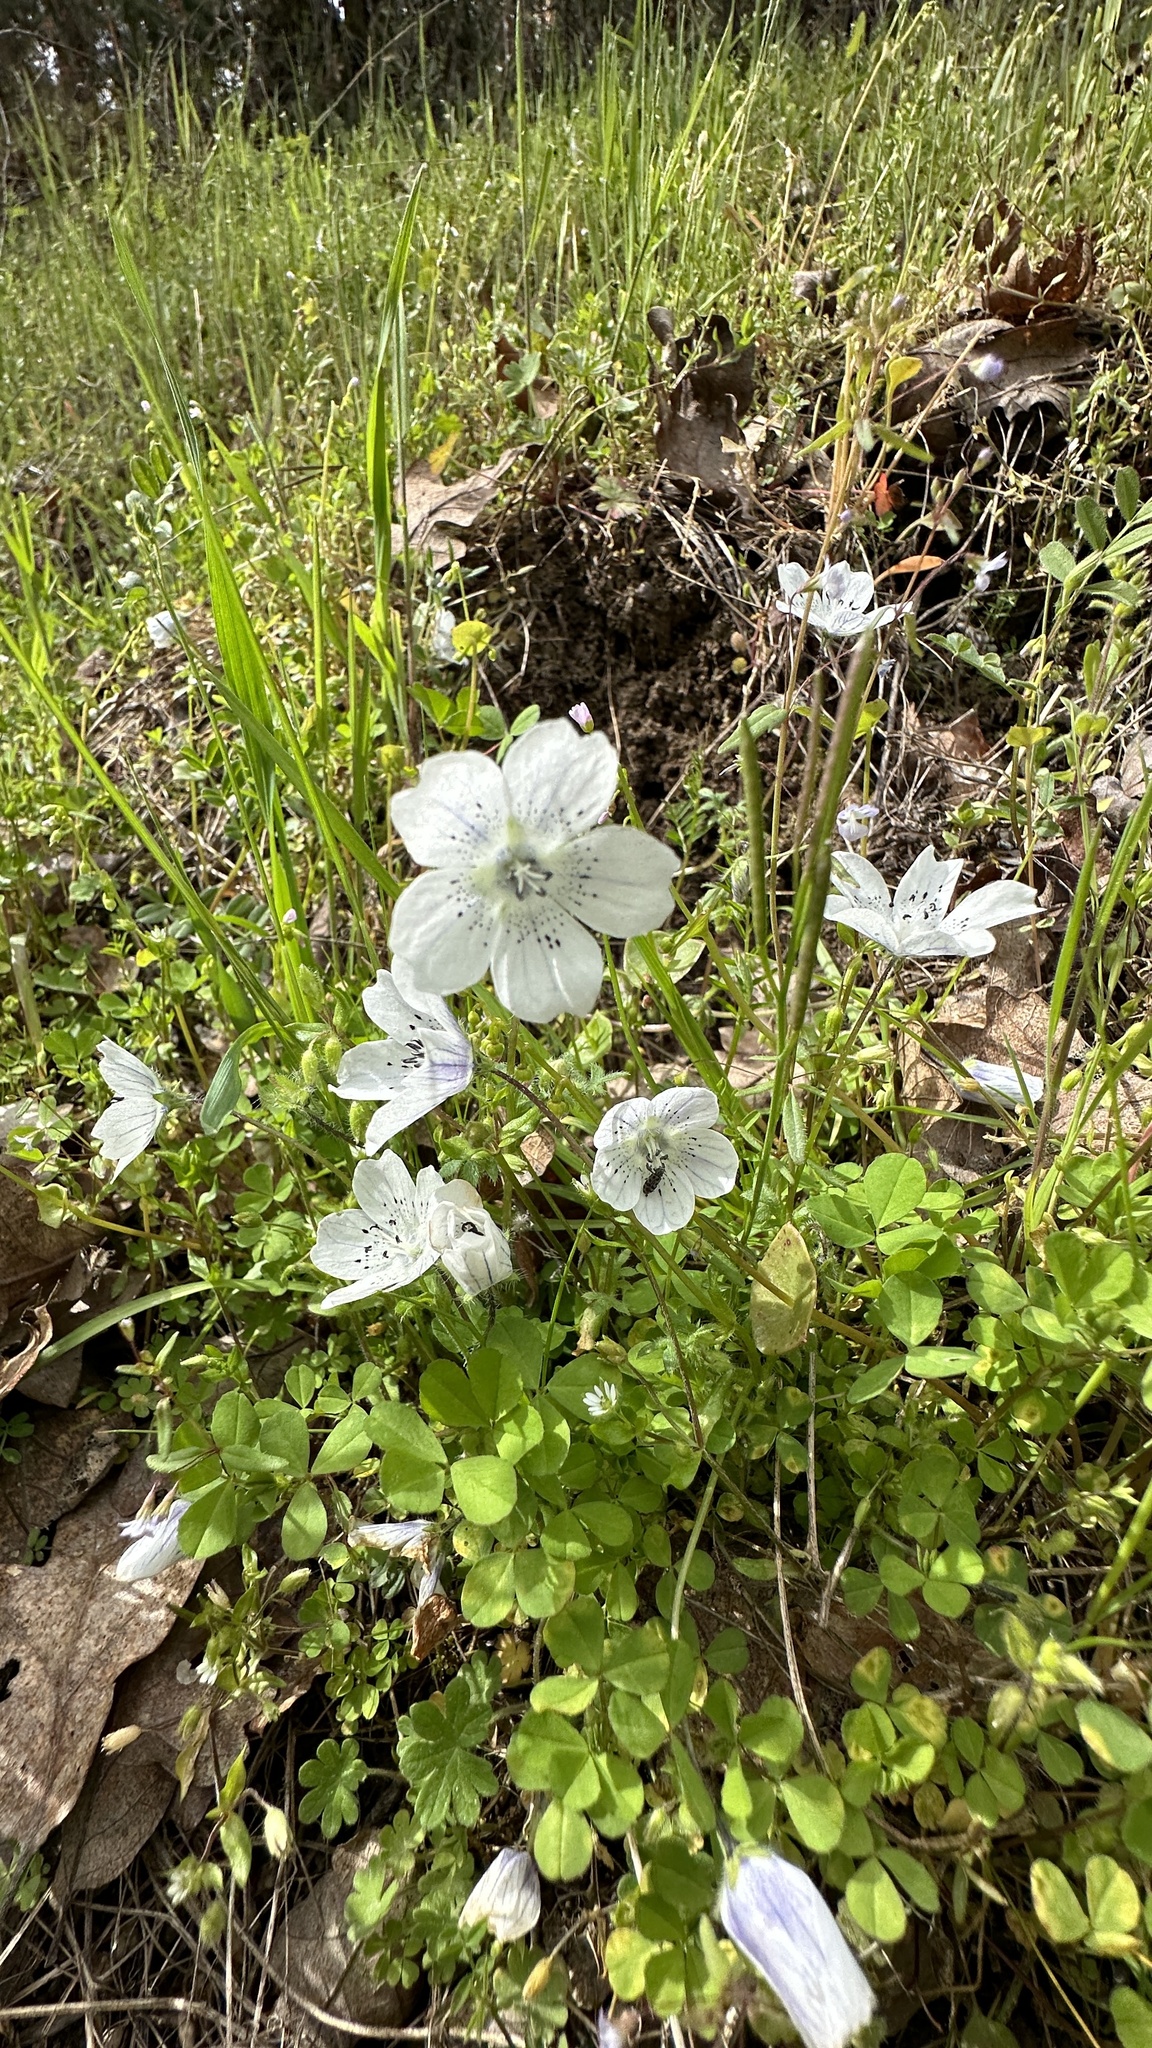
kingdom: Plantae
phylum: Tracheophyta
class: Magnoliopsida
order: Boraginales
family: Hydrophyllaceae
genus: Nemophila
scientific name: Nemophila menziesii
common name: Baby's-blue-eyes
